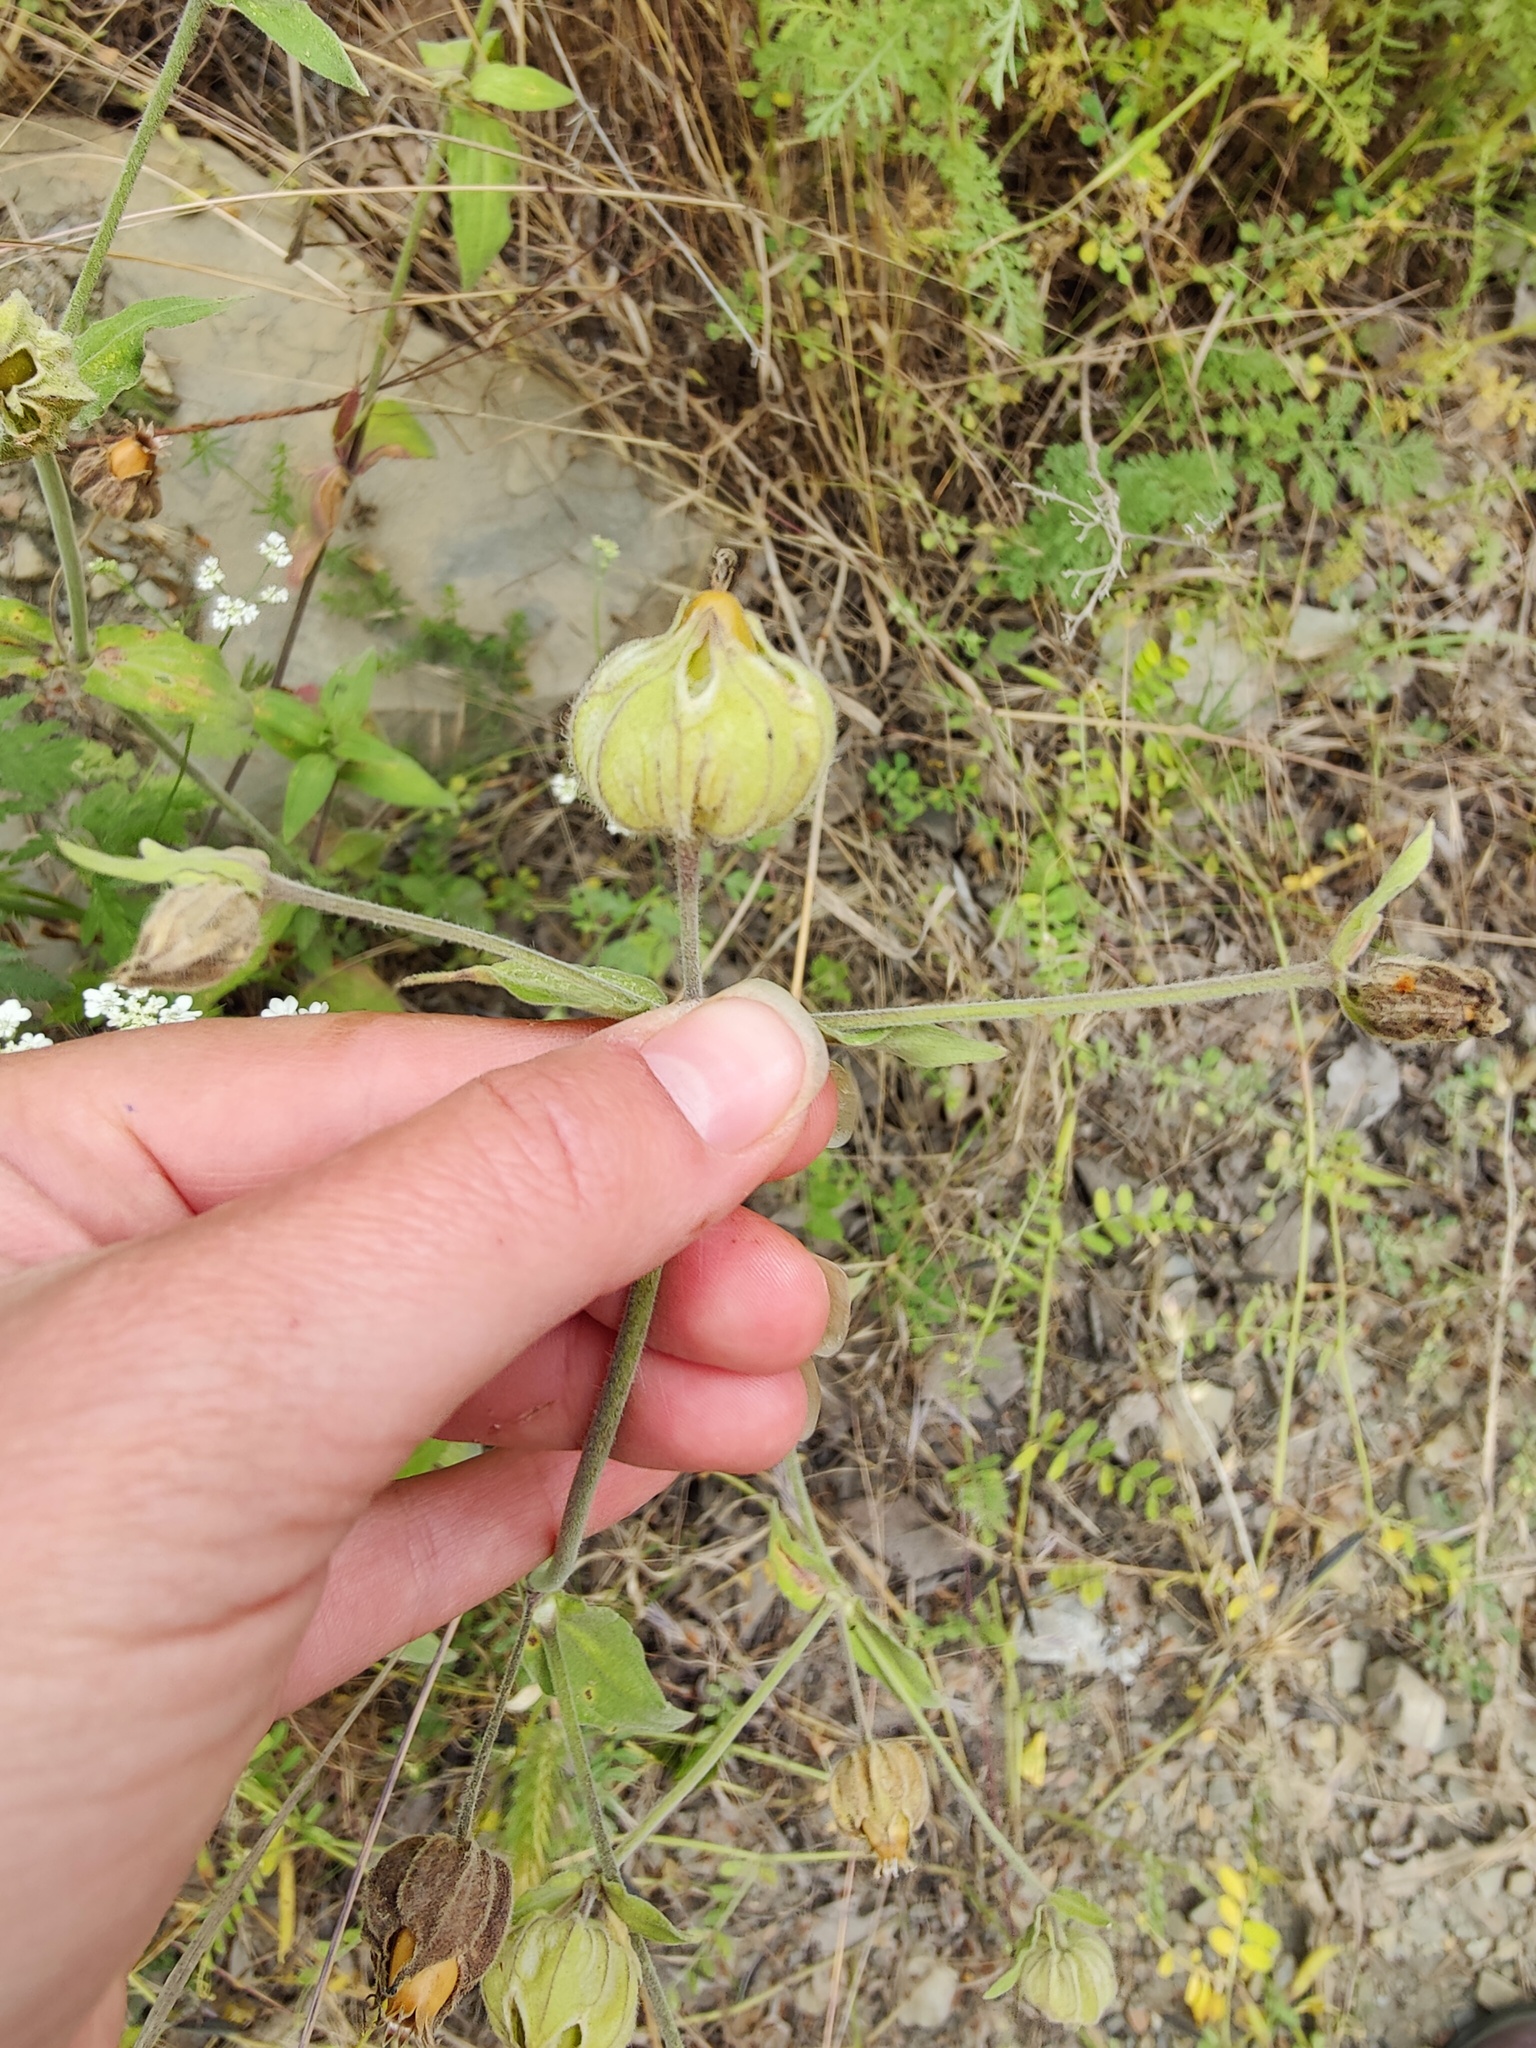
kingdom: Plantae
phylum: Tracheophyta
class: Magnoliopsida
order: Caryophyllales
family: Caryophyllaceae
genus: Silene
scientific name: Silene latifolia
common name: White campion
